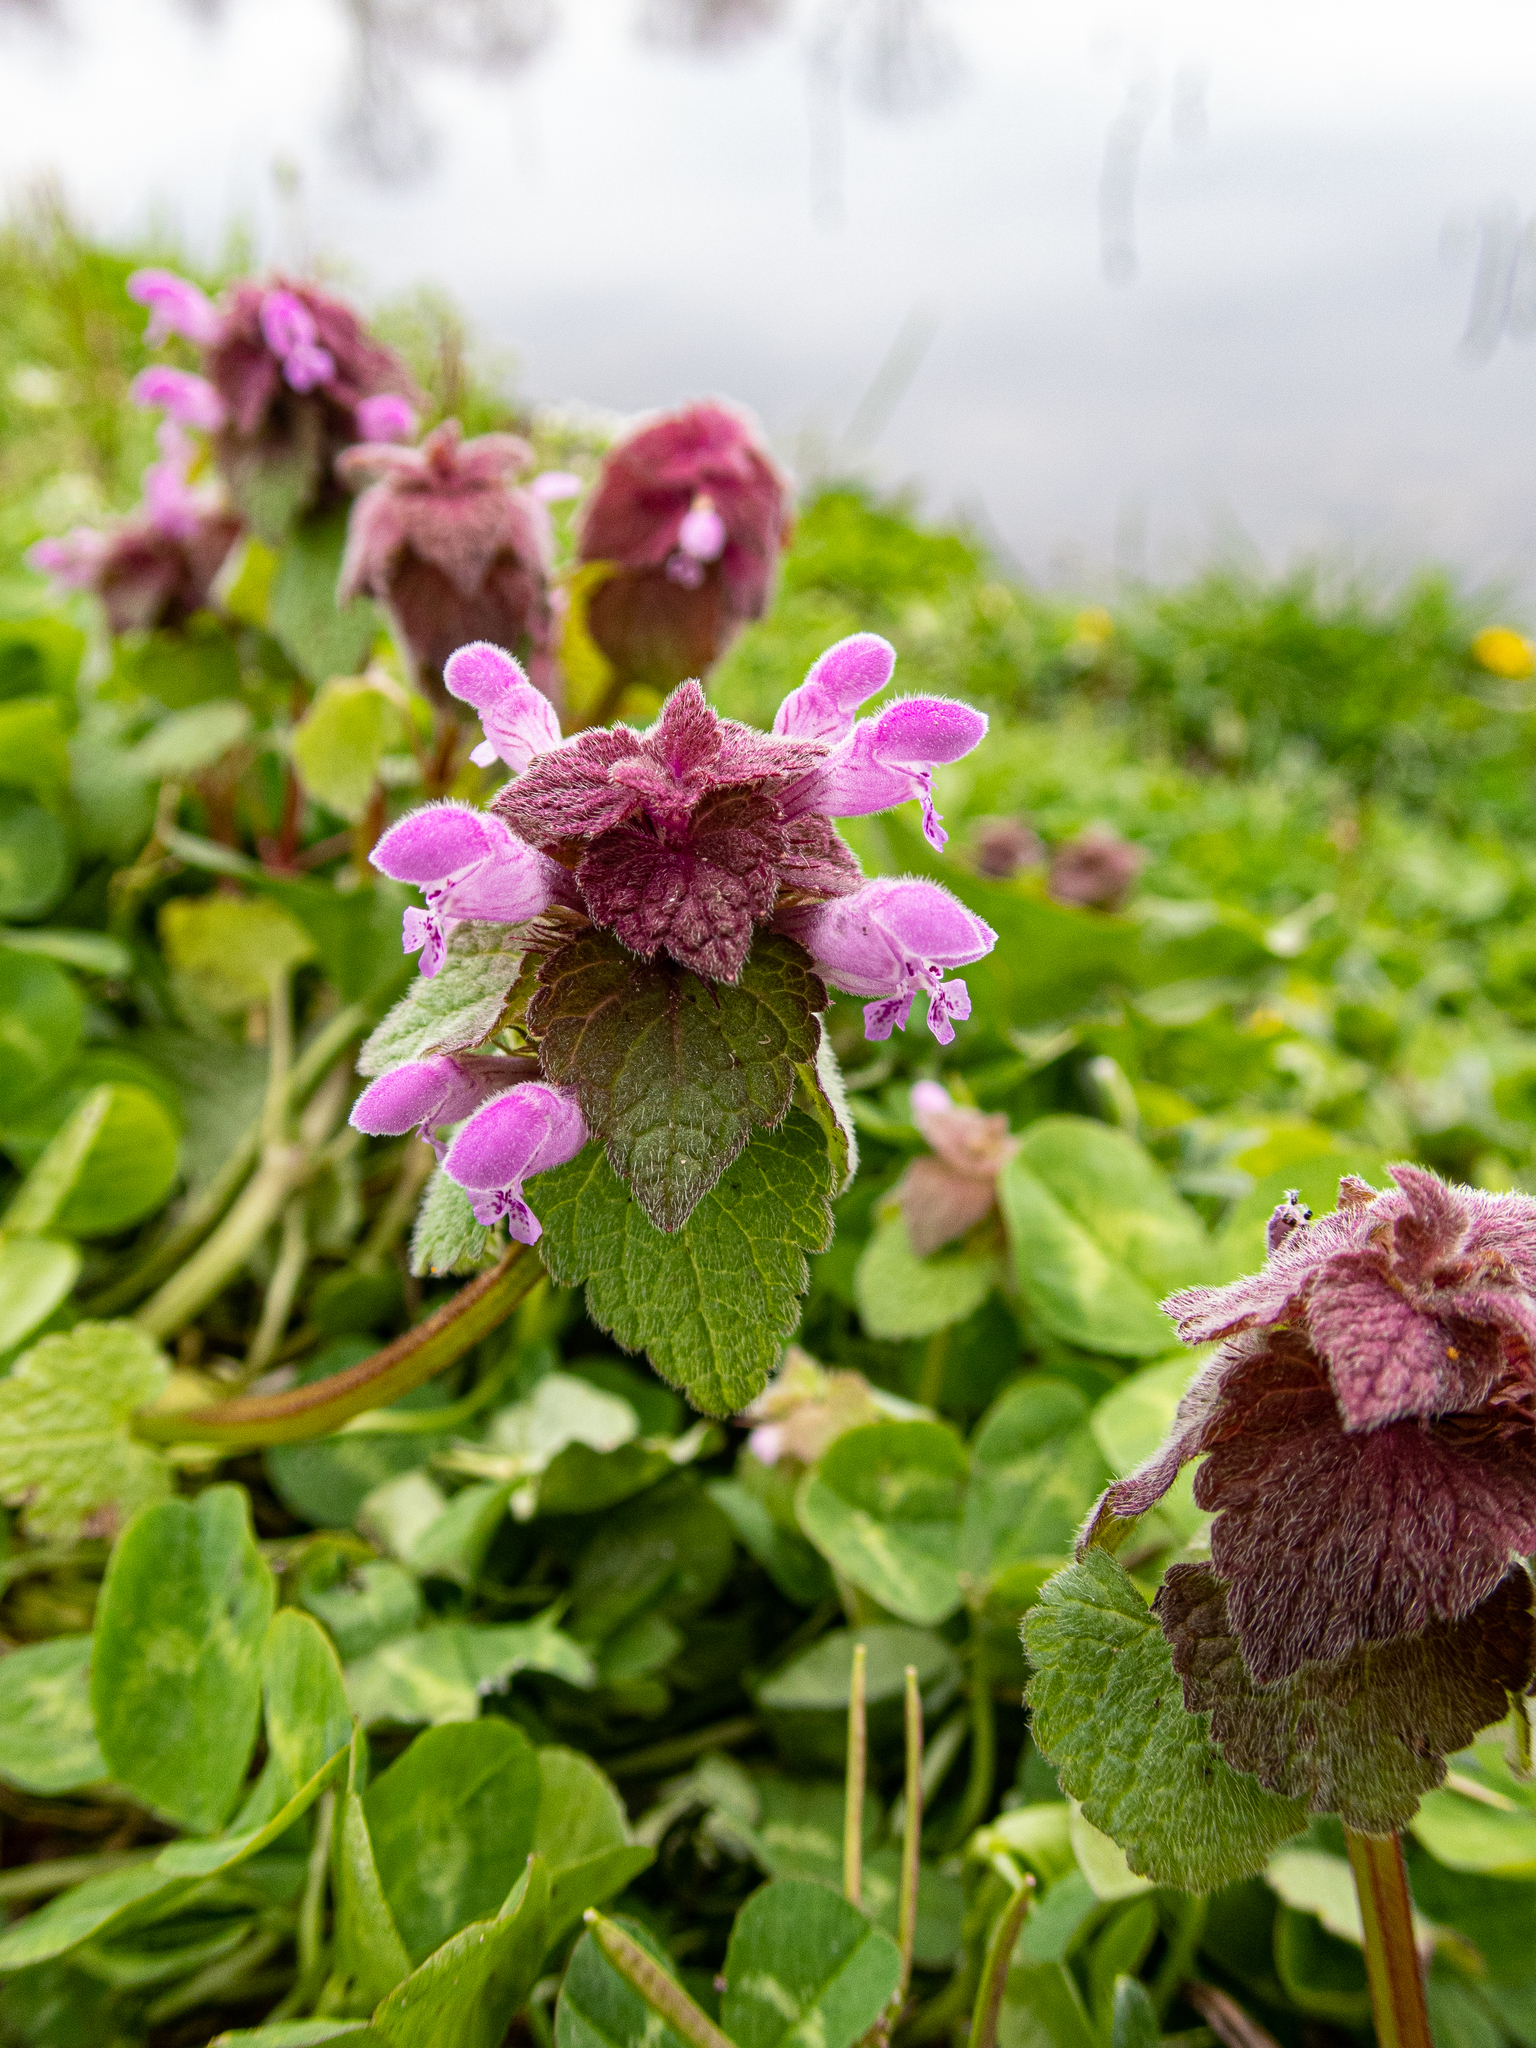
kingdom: Plantae
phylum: Tracheophyta
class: Magnoliopsida
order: Lamiales
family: Lamiaceae
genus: Lamium
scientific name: Lamium purpureum
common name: Red dead-nettle
